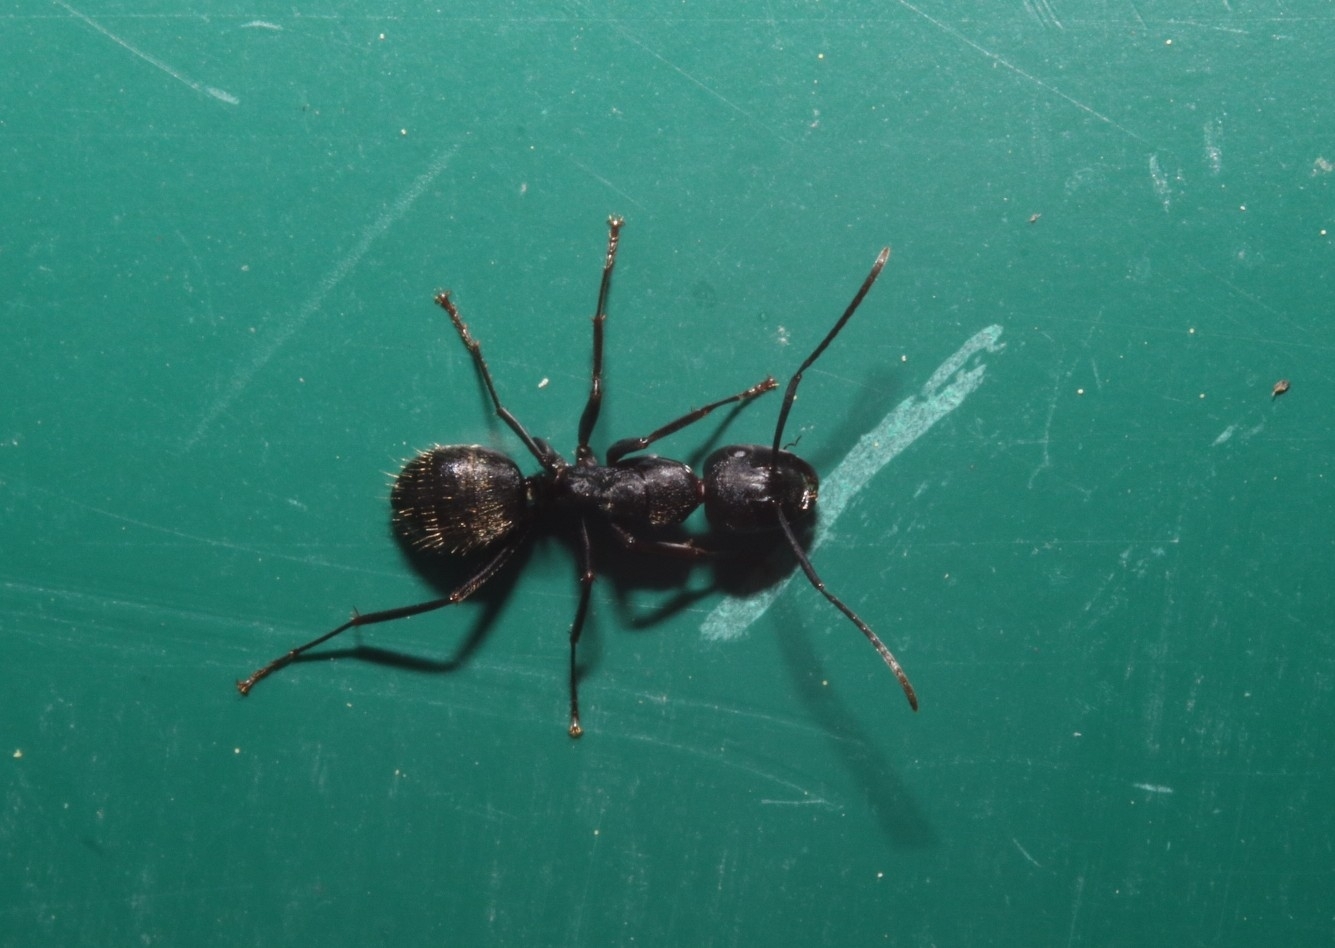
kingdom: Animalia
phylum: Arthropoda
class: Insecta
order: Hymenoptera
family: Formicidae
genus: Camponotus
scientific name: Camponotus pennsylvanicus
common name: Black carpenter ant
